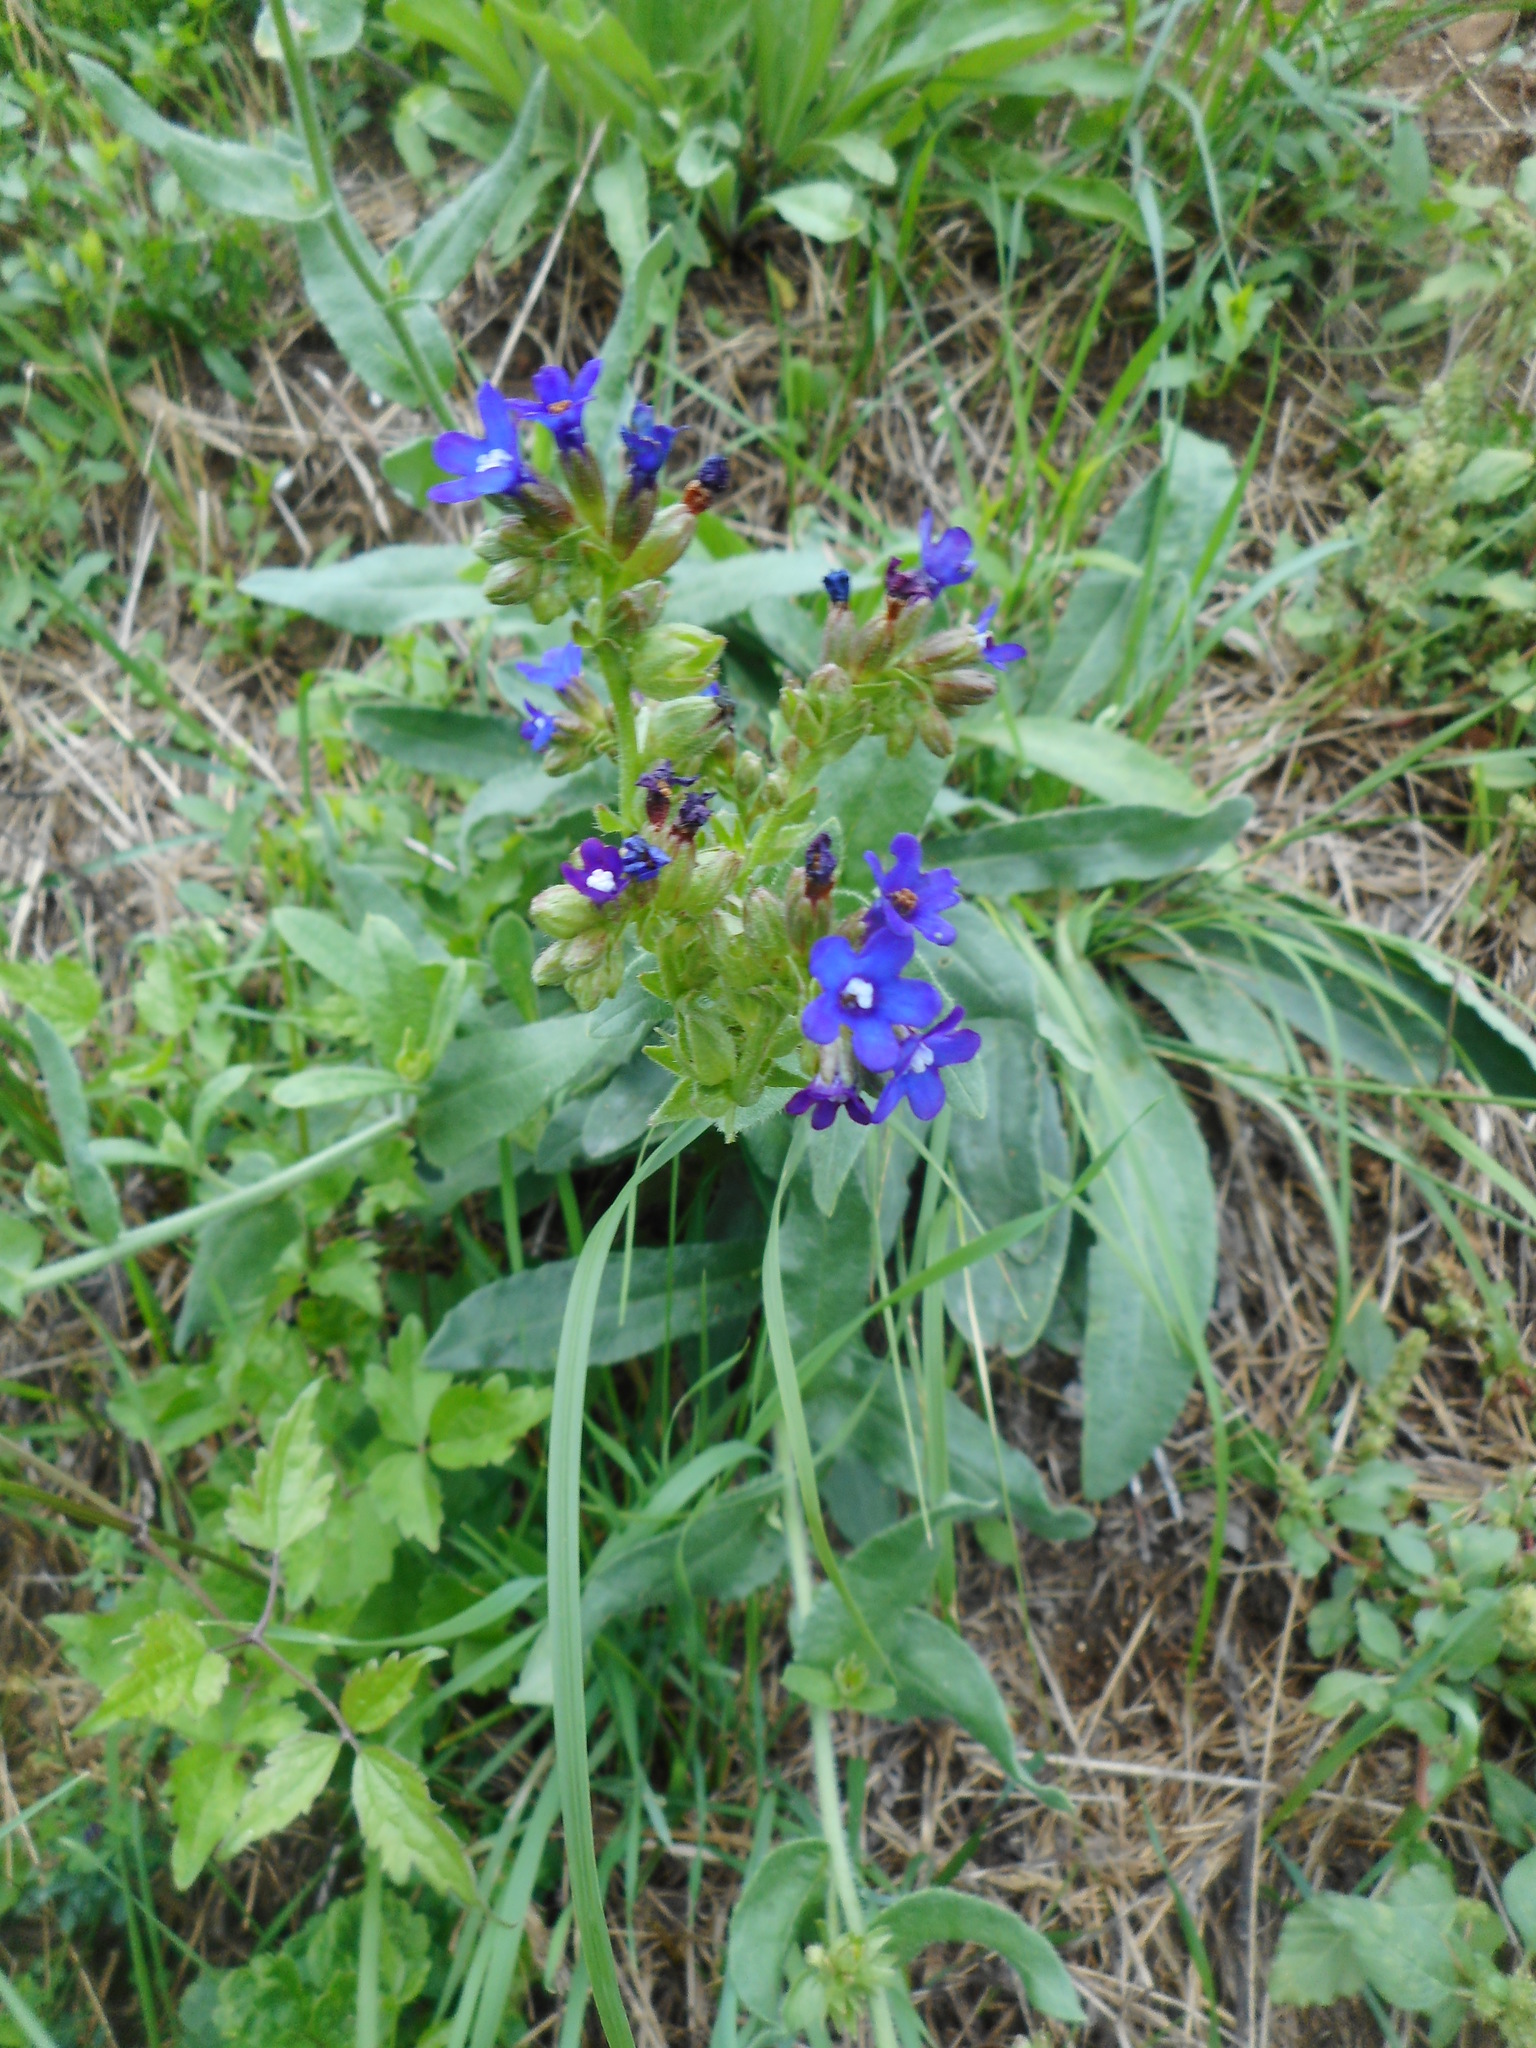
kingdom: Plantae
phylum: Tracheophyta
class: Magnoliopsida
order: Boraginales
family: Boraginaceae
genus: Anchusa
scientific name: Anchusa officinalis
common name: Alkanet
